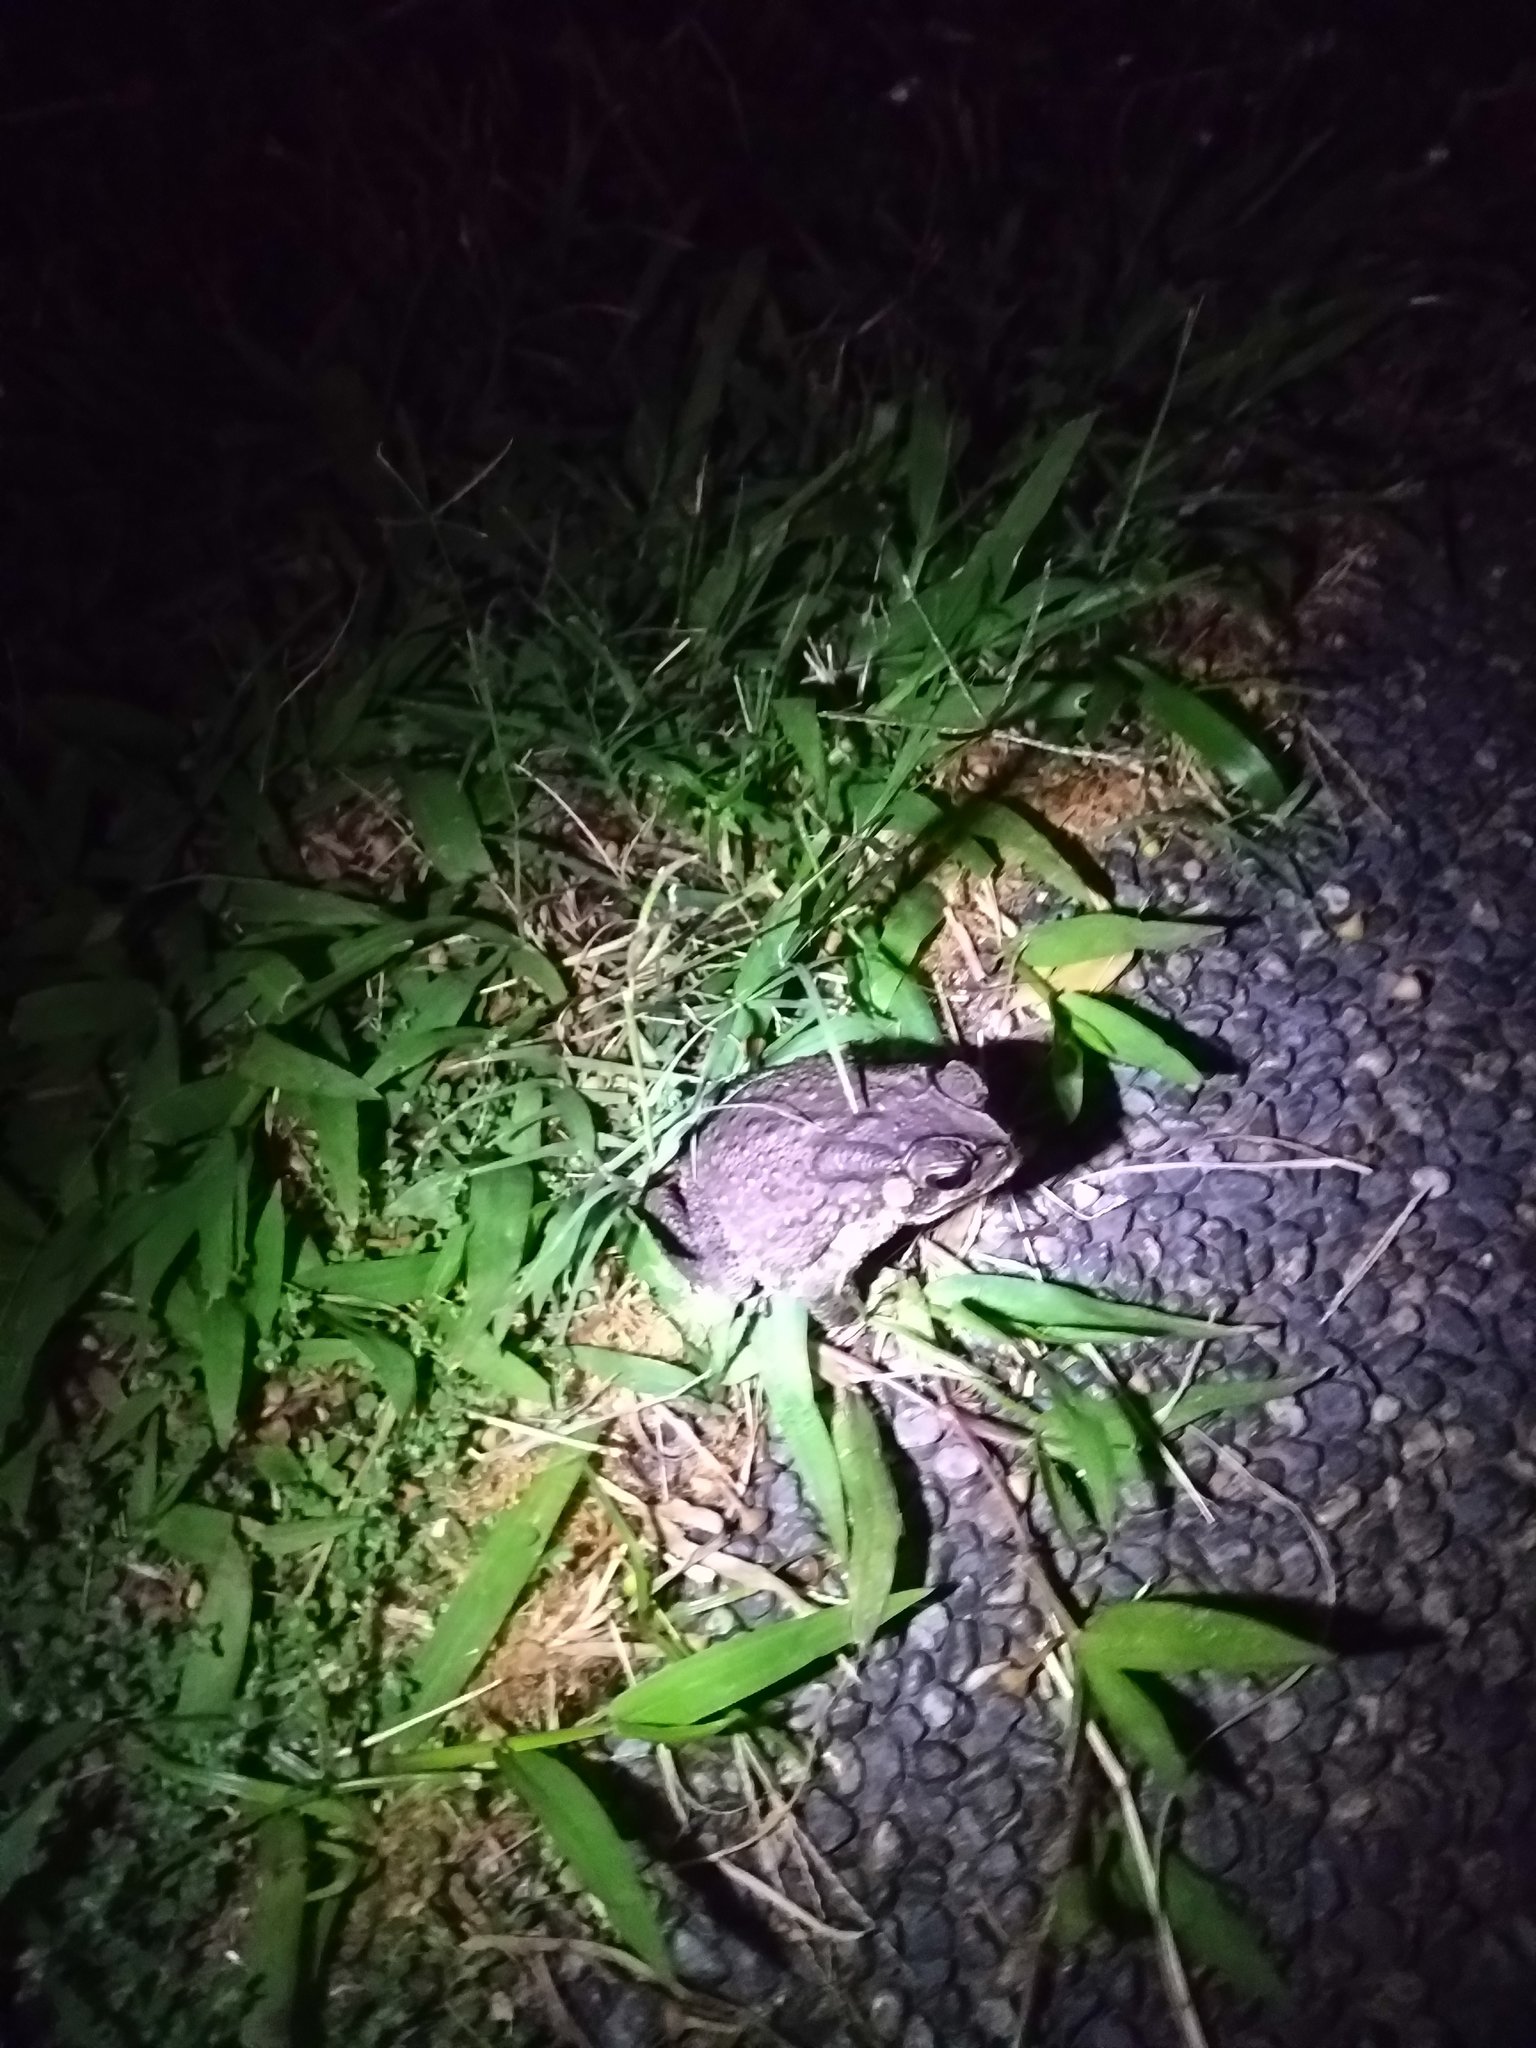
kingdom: Animalia
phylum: Chordata
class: Amphibia
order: Anura
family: Bufonidae
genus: Duttaphrynus
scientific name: Duttaphrynus melanostictus
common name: Common sunda toad
